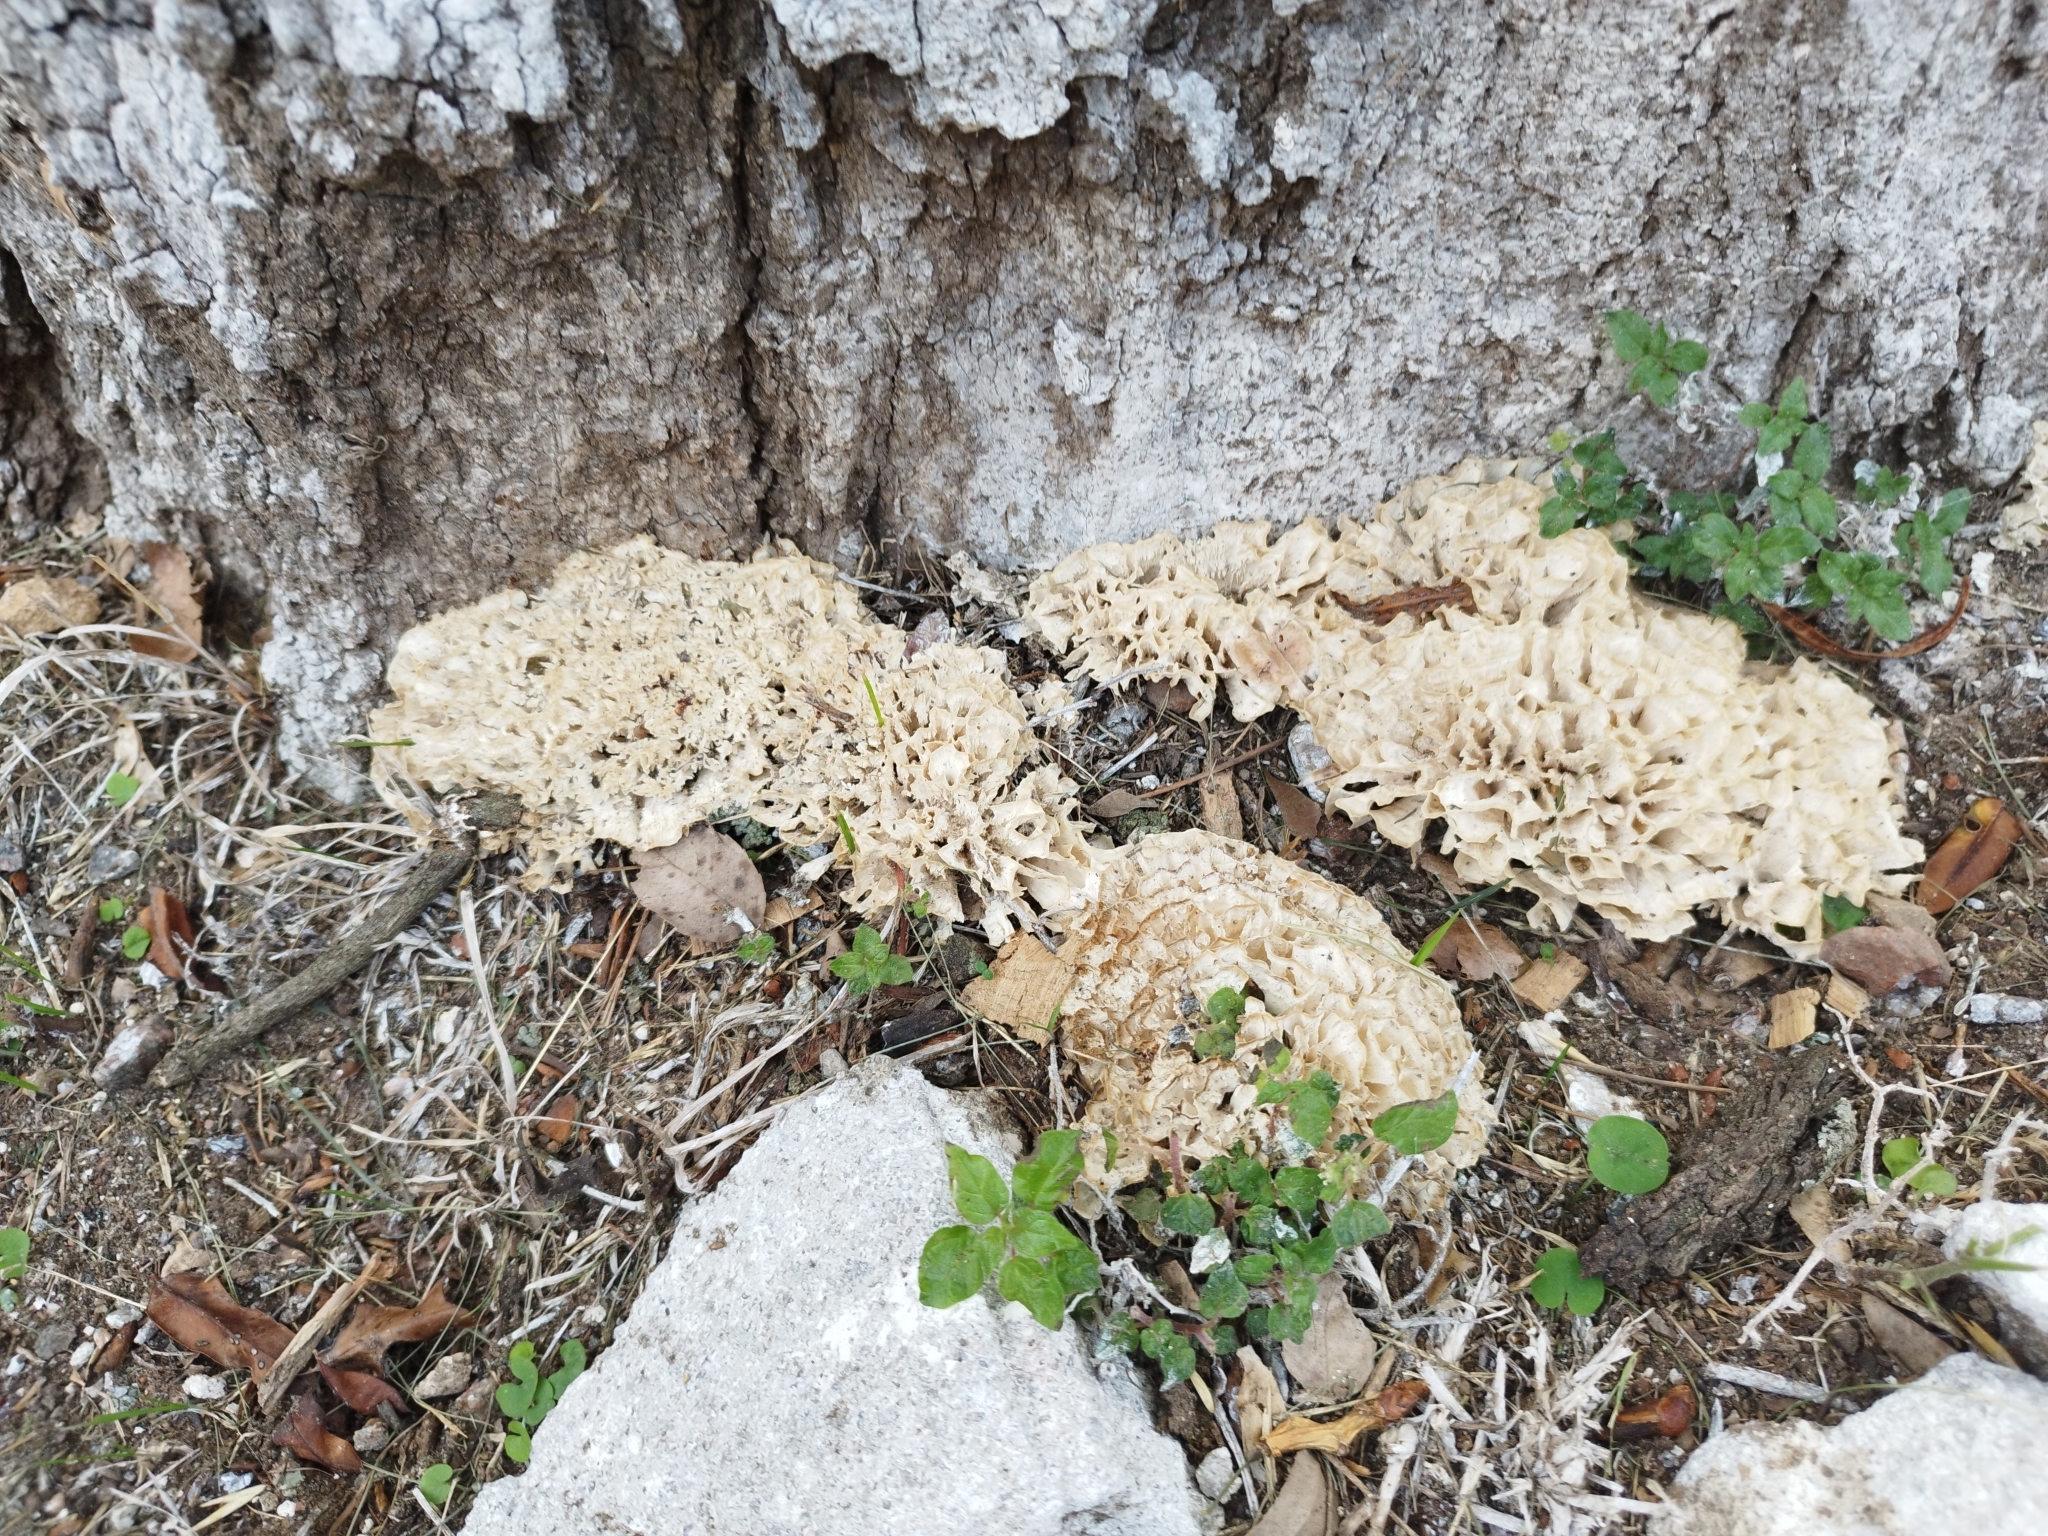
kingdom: Fungi
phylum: Basidiomycota
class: Agaricomycetes
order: Polyporales
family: Irpicaceae
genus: Irpex
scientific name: Irpex rosettiformis
